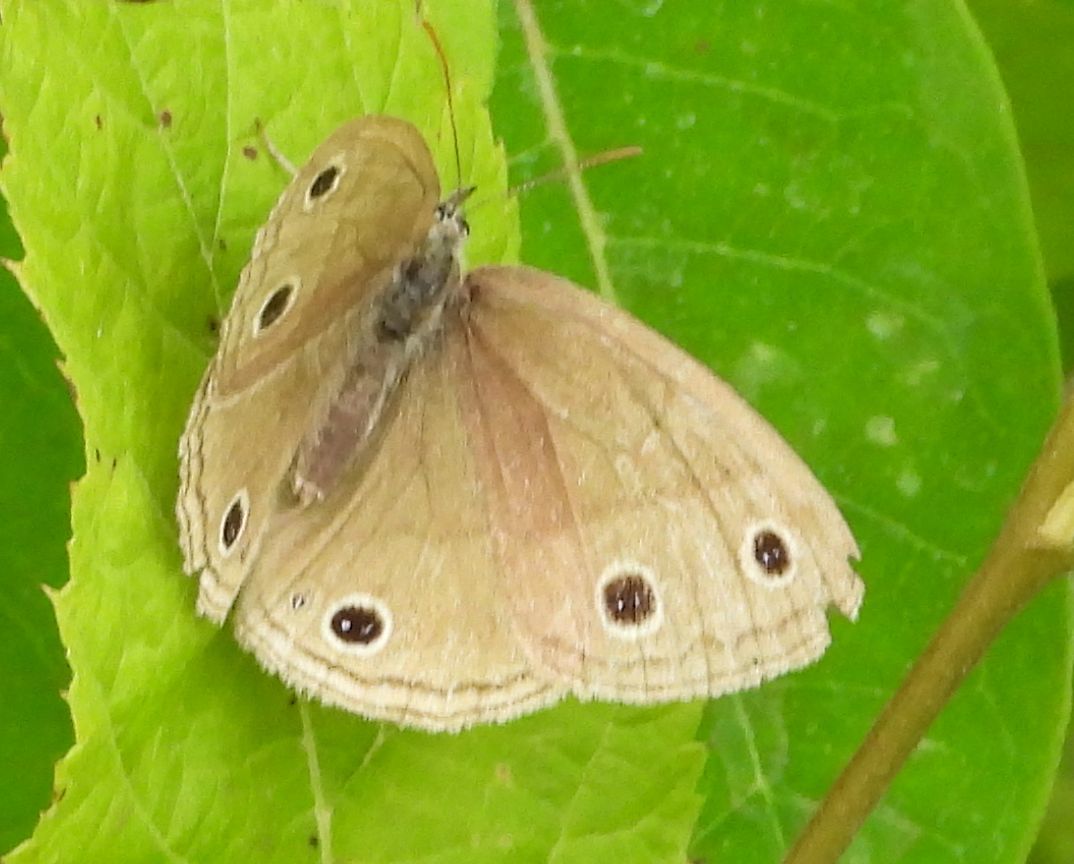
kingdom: Animalia
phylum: Arthropoda
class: Insecta
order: Lepidoptera
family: Nymphalidae
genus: Euptychia
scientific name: Euptychia cymela
